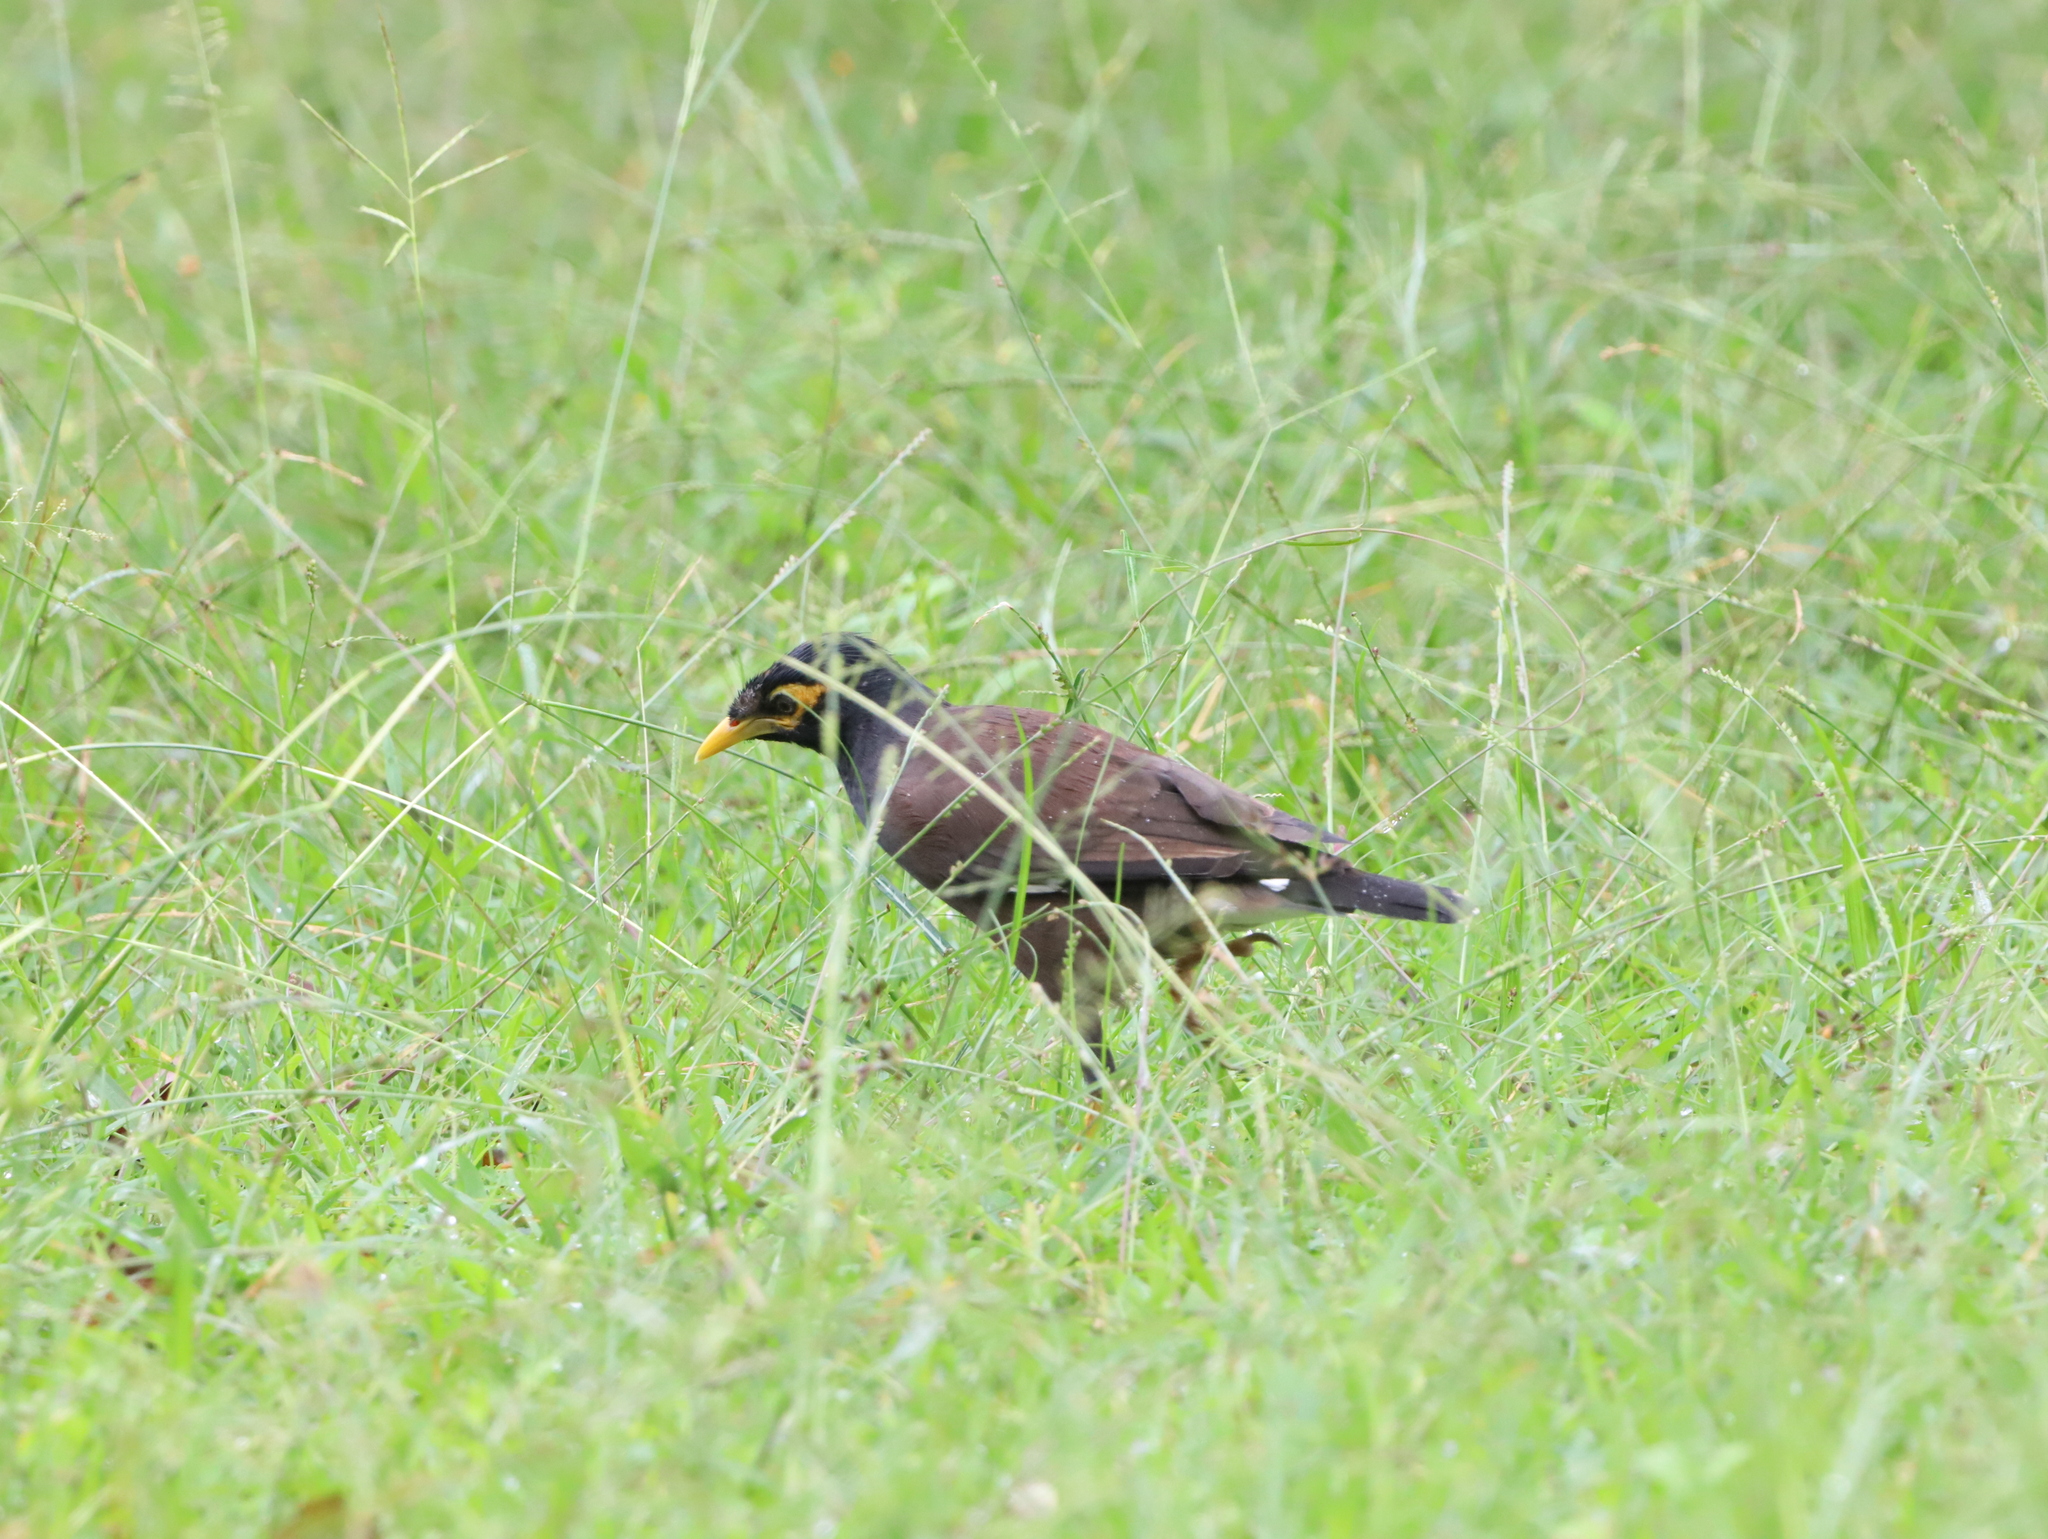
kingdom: Animalia
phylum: Chordata
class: Aves
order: Passeriformes
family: Sturnidae
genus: Acridotheres
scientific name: Acridotheres tristis
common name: Common myna
